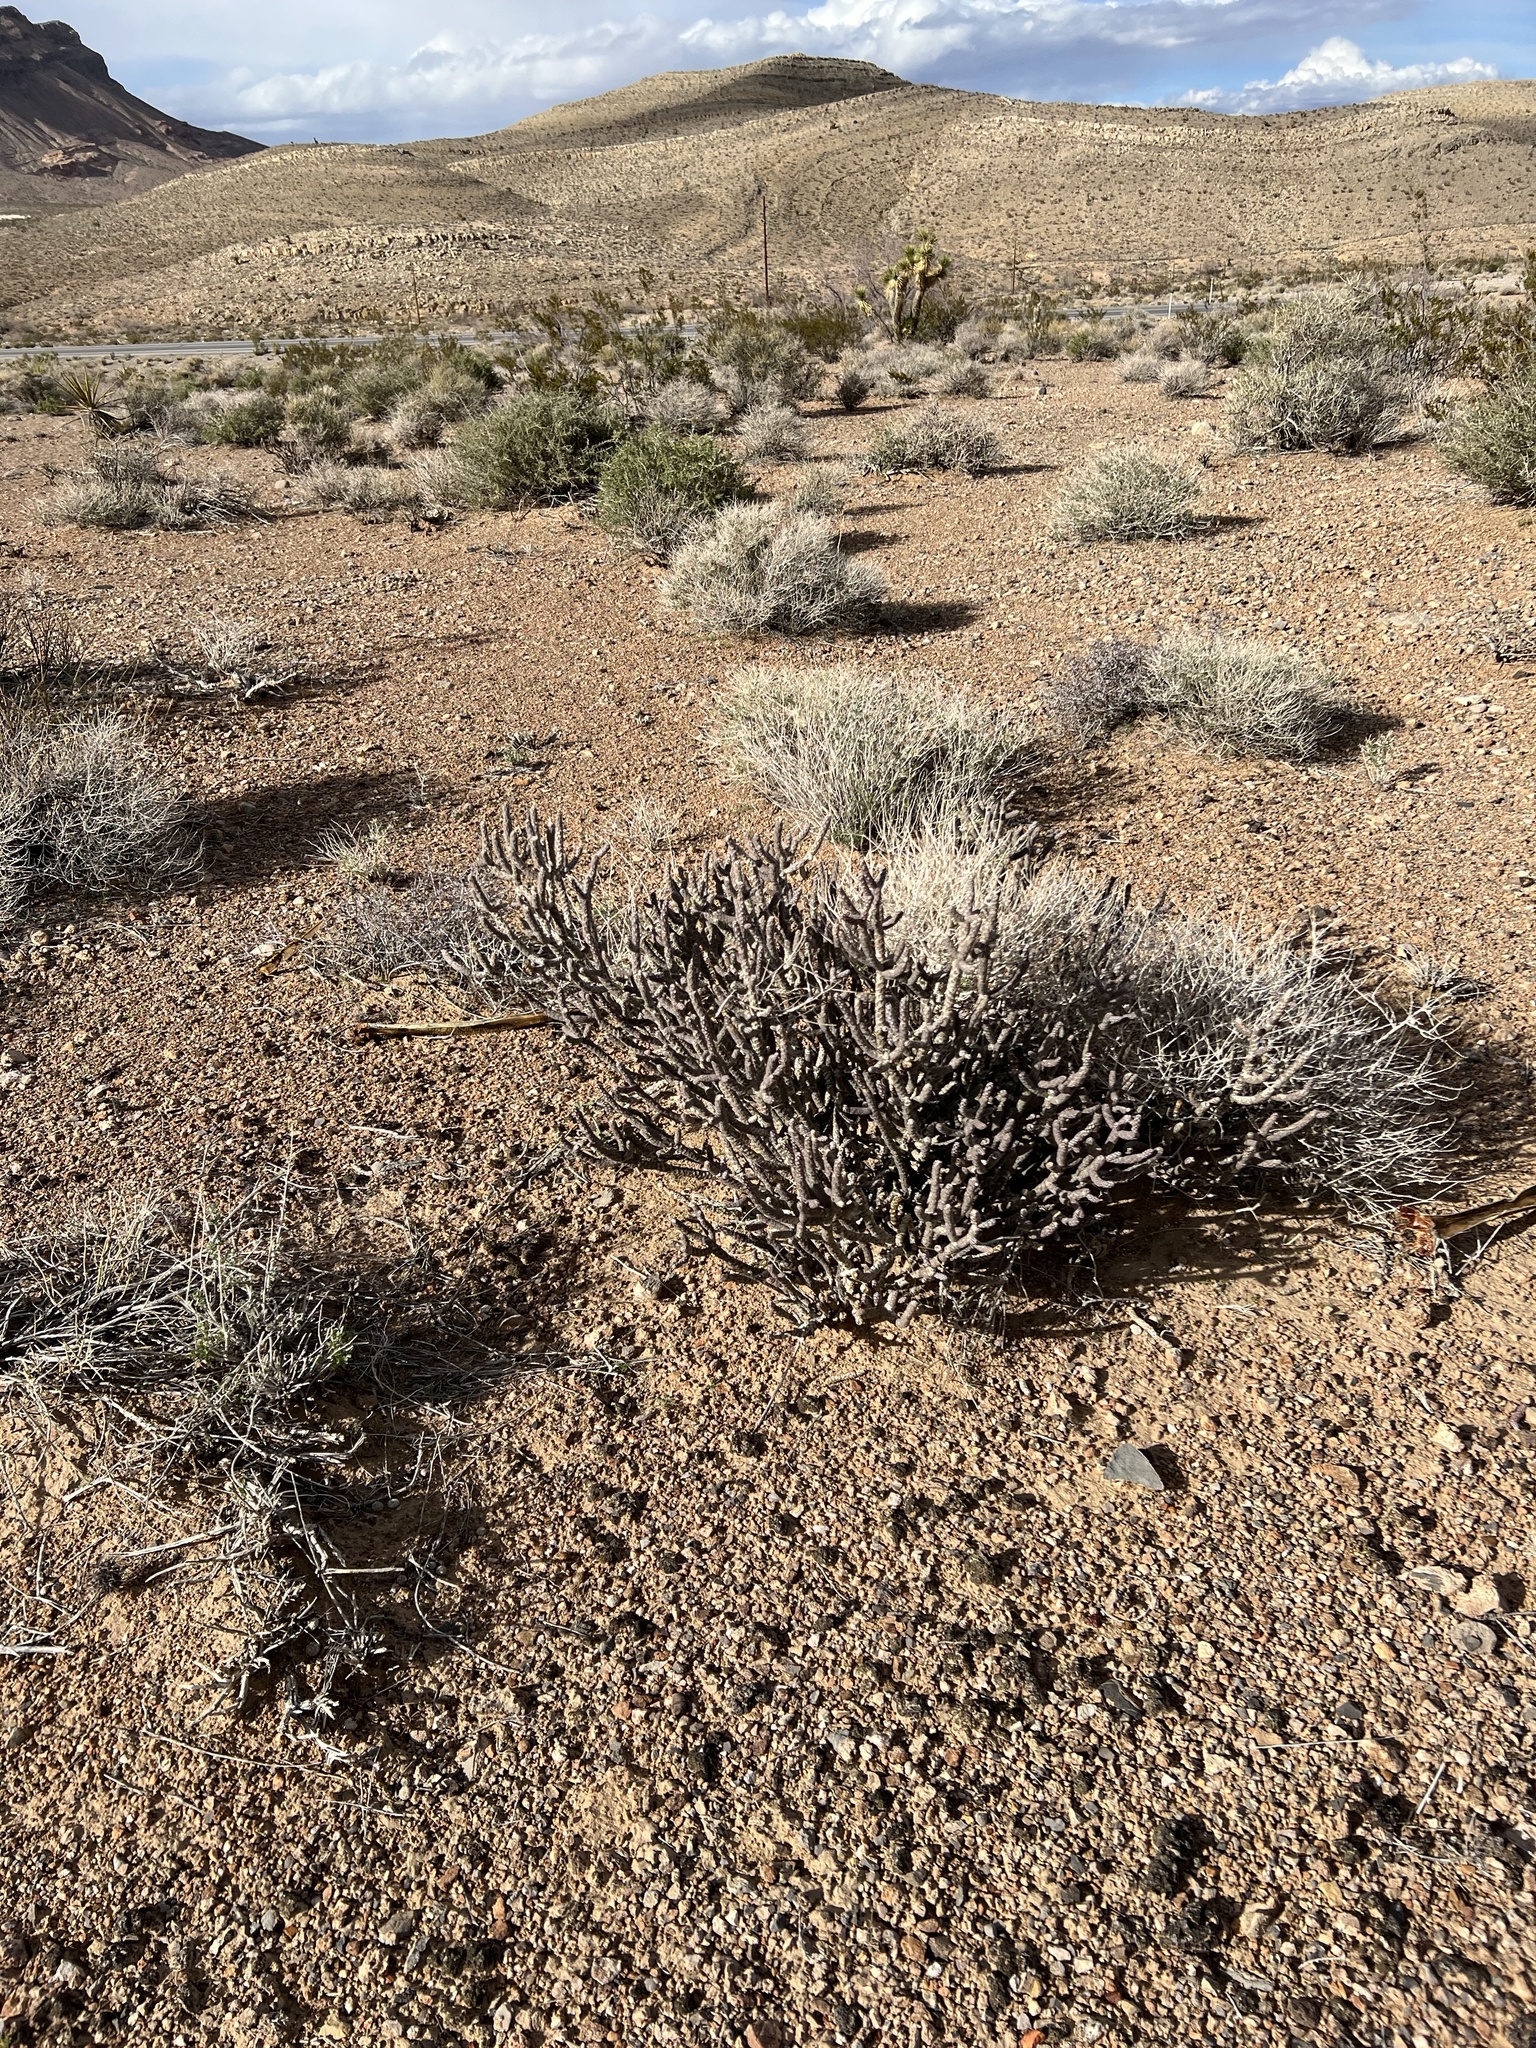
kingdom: Plantae
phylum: Tracheophyta
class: Magnoliopsida
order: Caryophyllales
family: Cactaceae
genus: Cylindropuntia
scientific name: Cylindropuntia ramosissima
